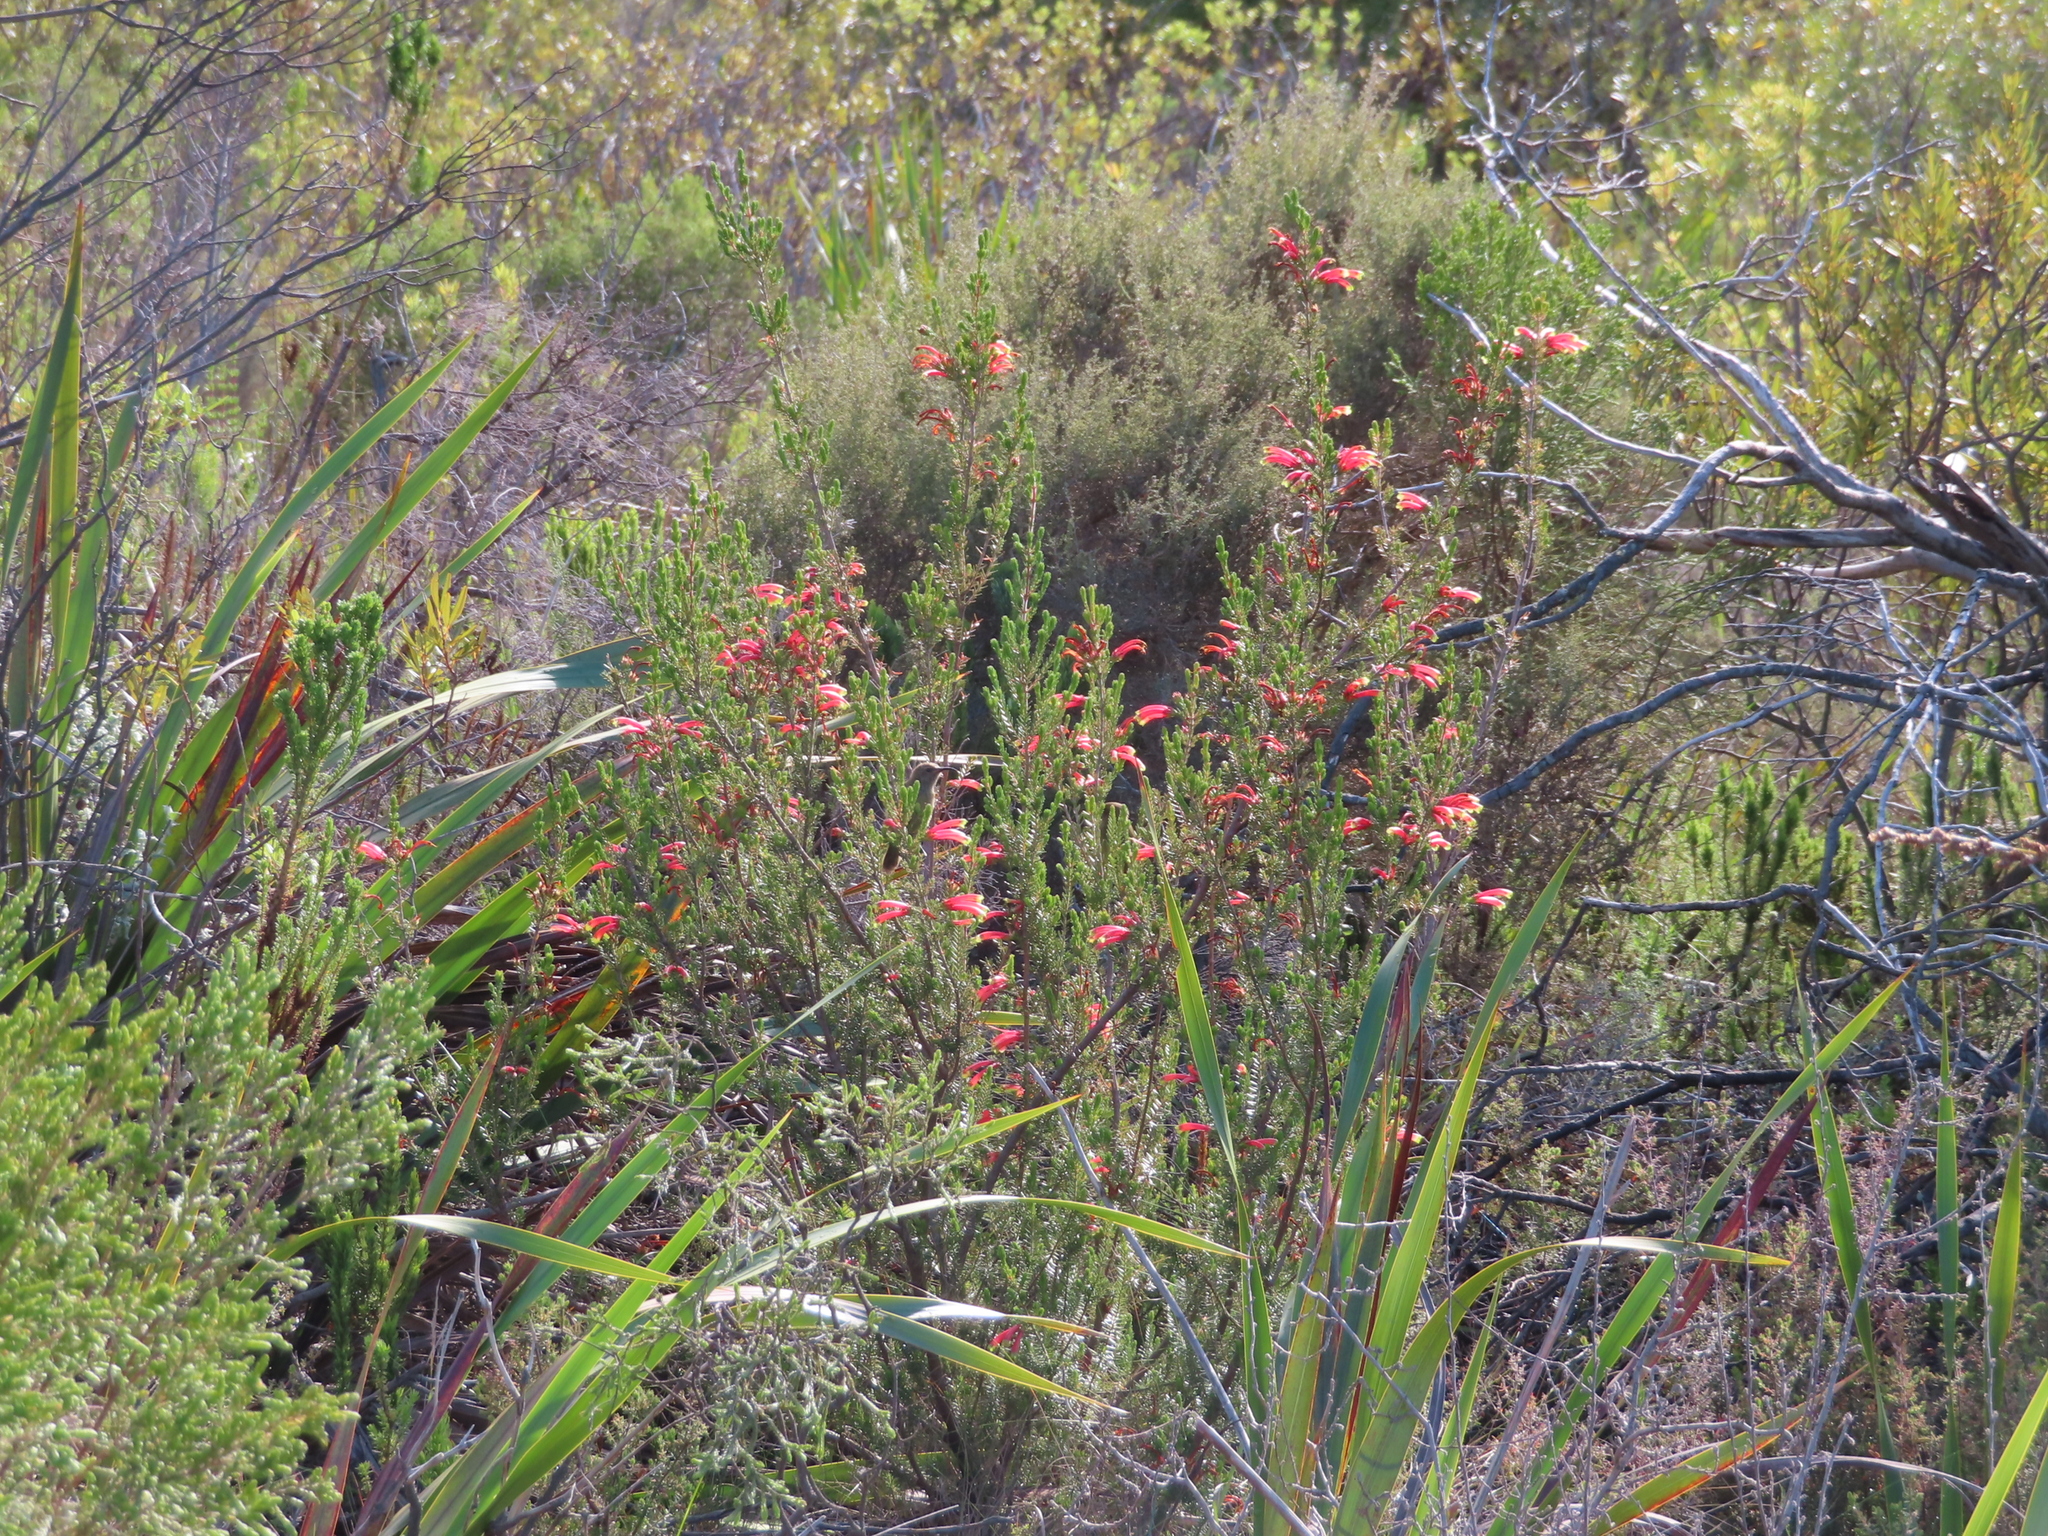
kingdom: Plantae
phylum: Tracheophyta
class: Magnoliopsida
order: Ericales
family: Ericaceae
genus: Erica
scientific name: Erica versicolor
